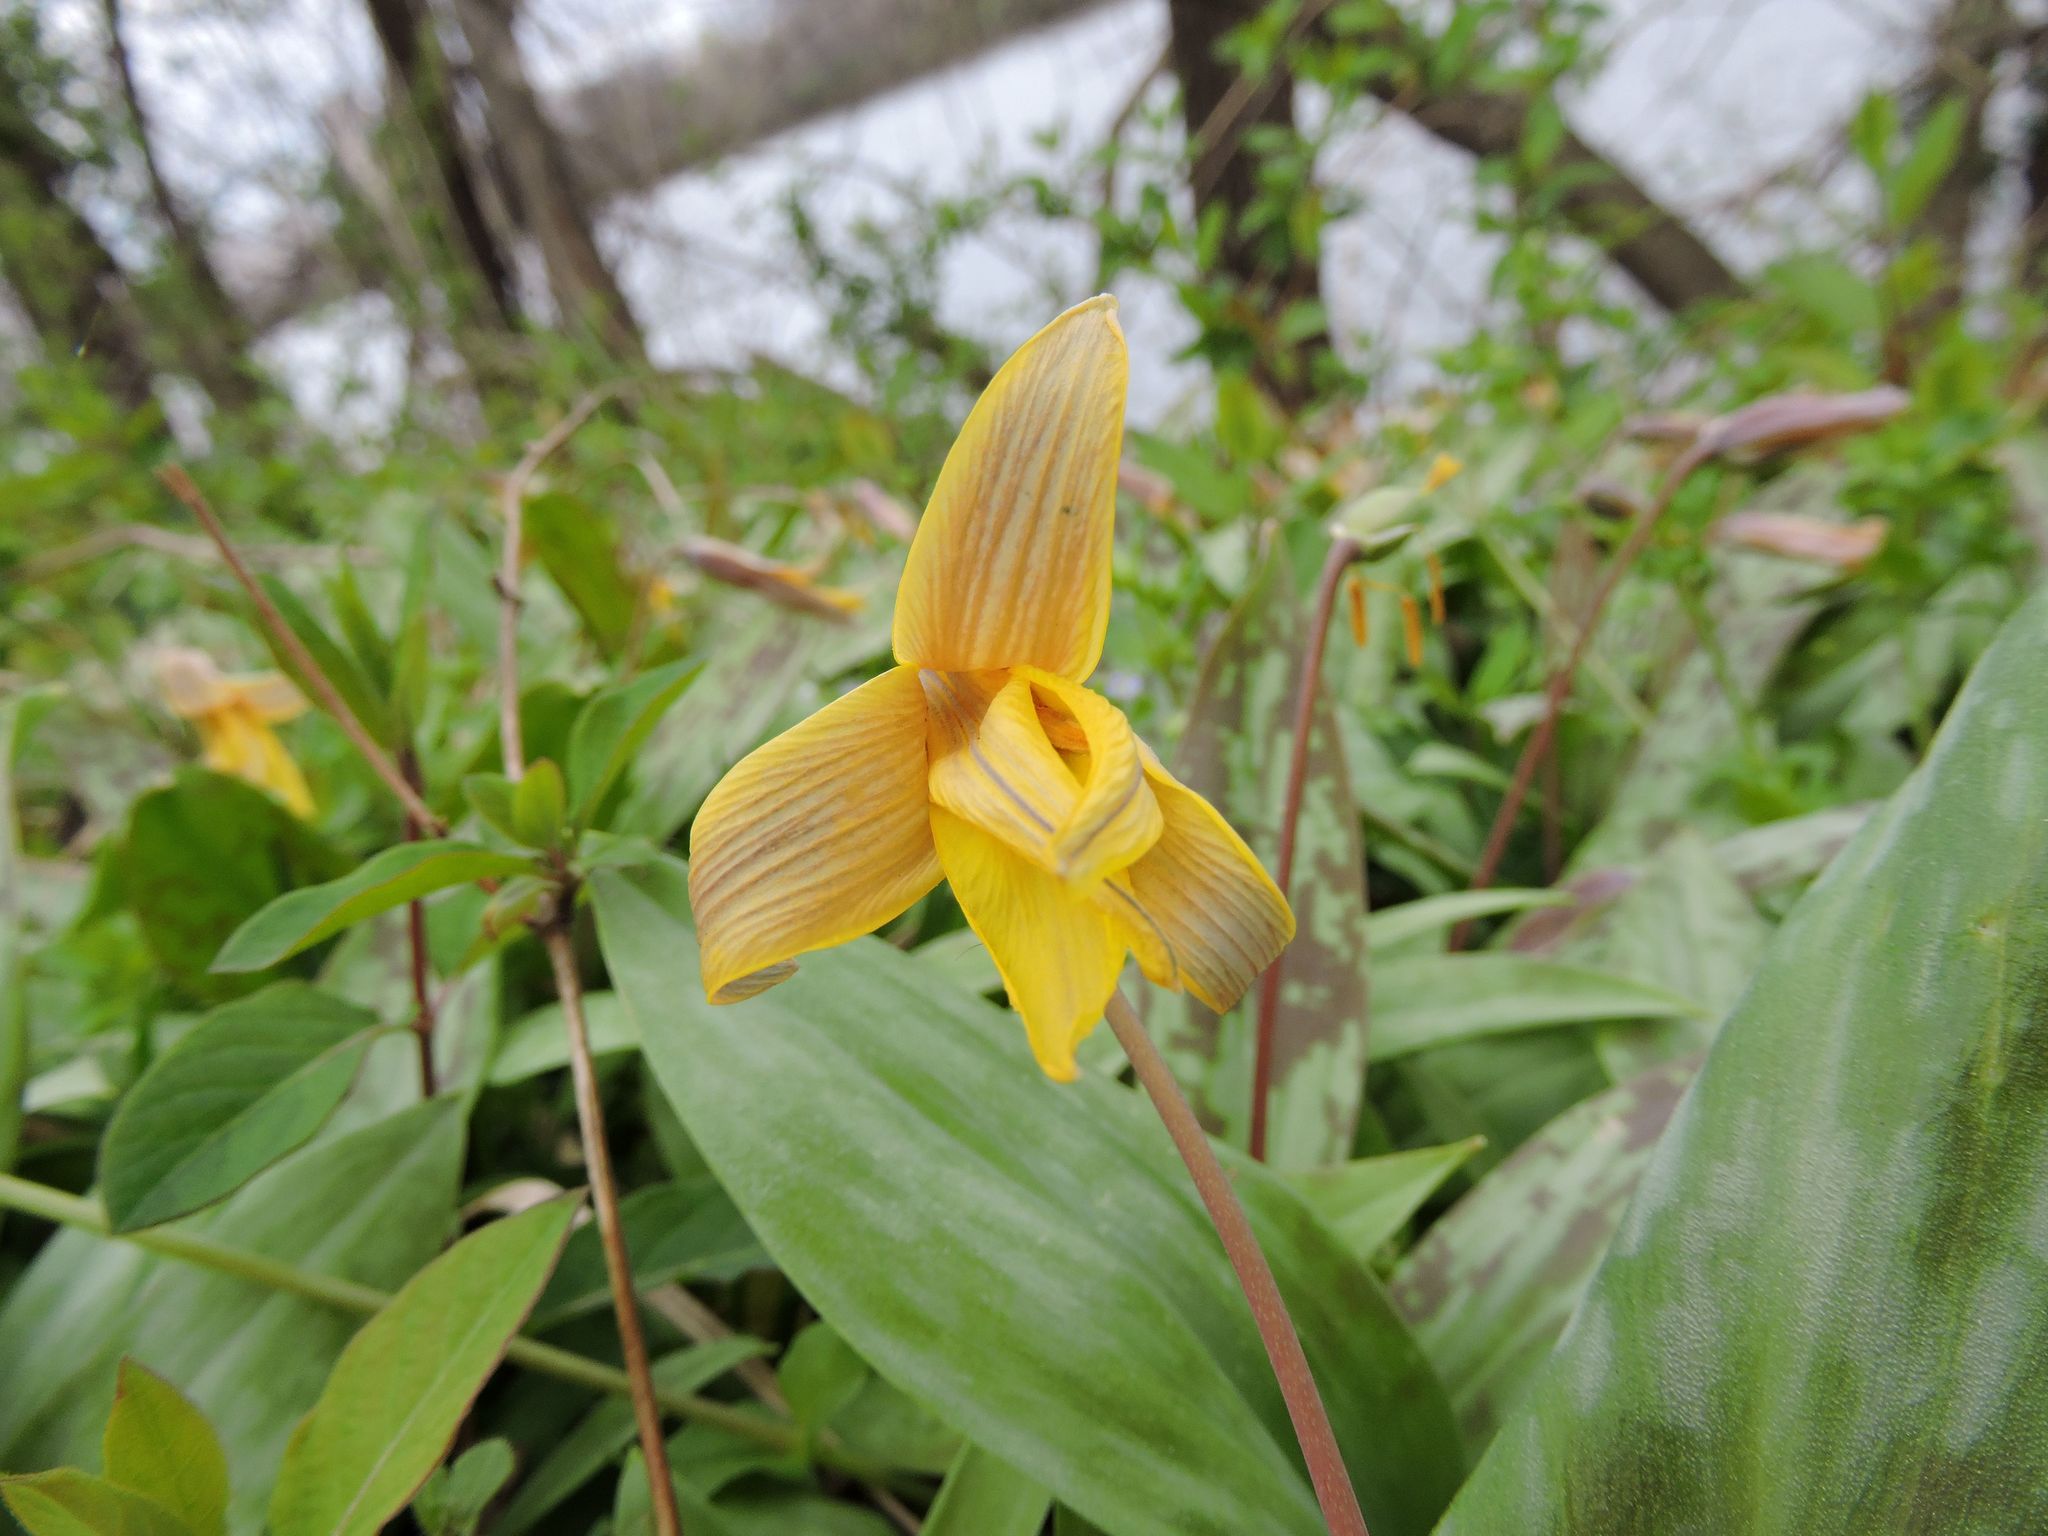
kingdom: Plantae
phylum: Tracheophyta
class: Liliopsida
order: Liliales
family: Liliaceae
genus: Erythronium
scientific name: Erythronium americanum
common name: Yellow adder's-tongue
